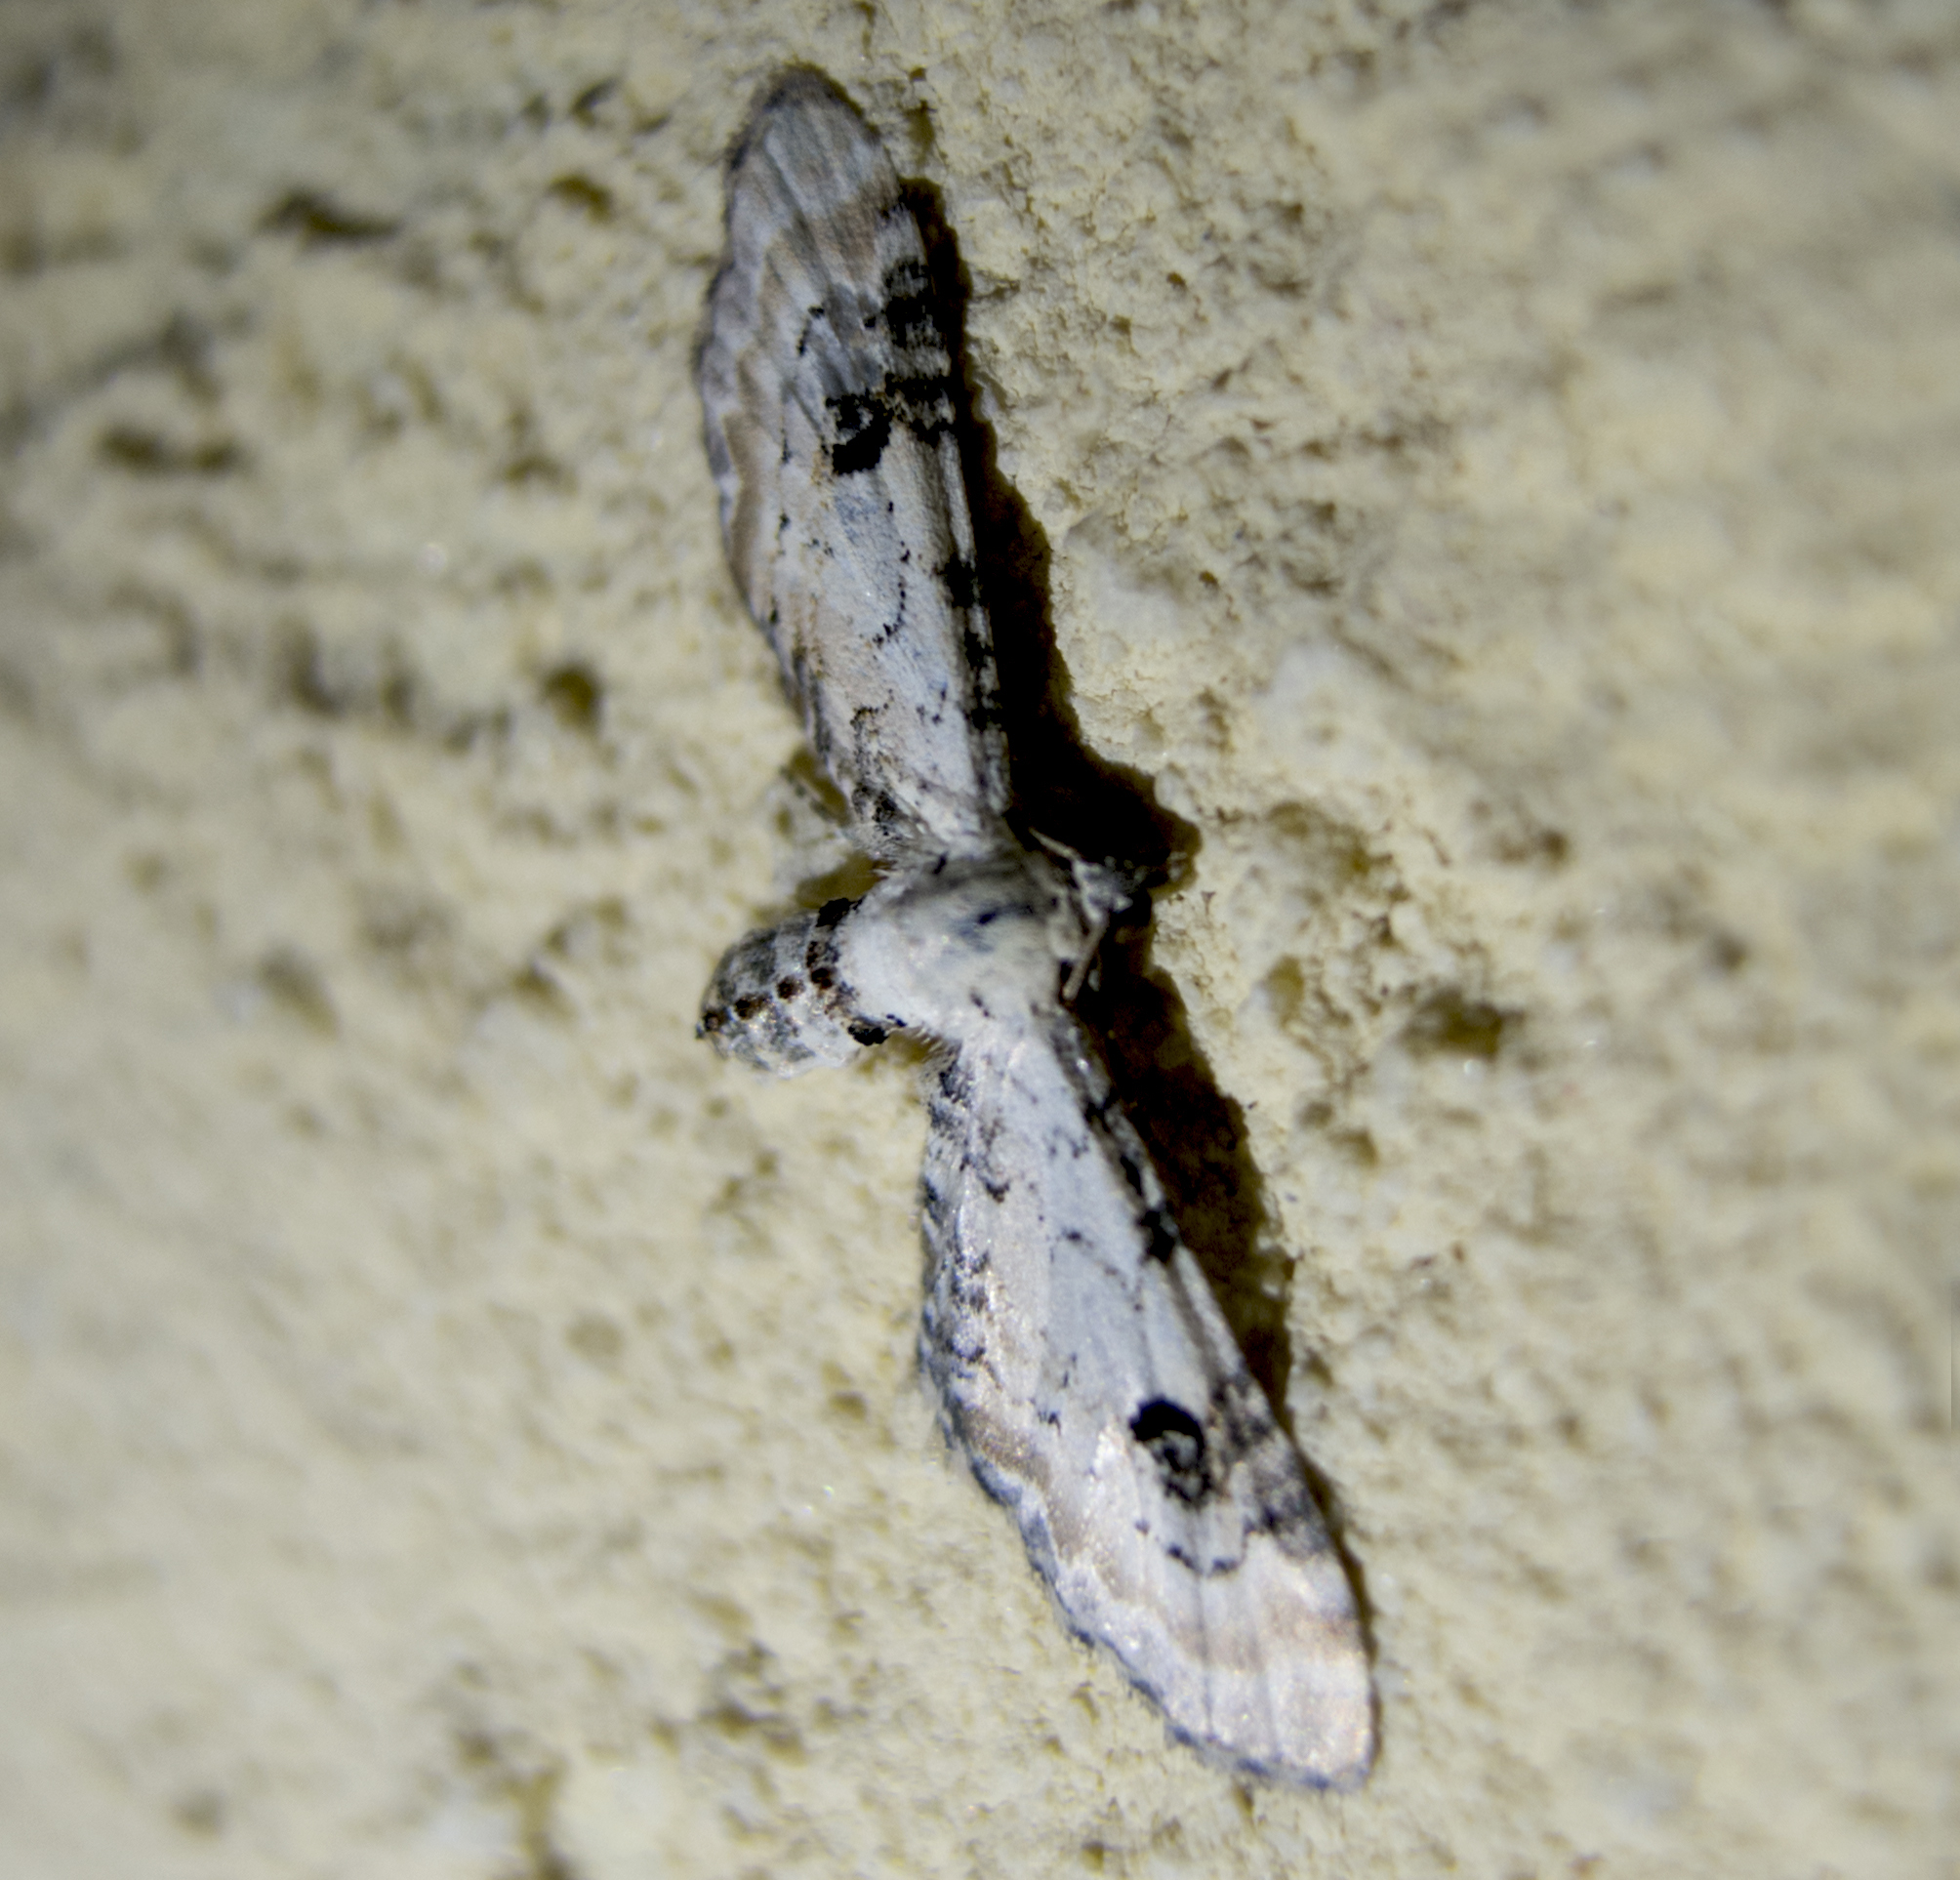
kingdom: Animalia
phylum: Arthropoda
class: Insecta
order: Lepidoptera
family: Geometridae
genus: Eupithecia
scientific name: Eupithecia centaureata
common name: Lime-speck pug
